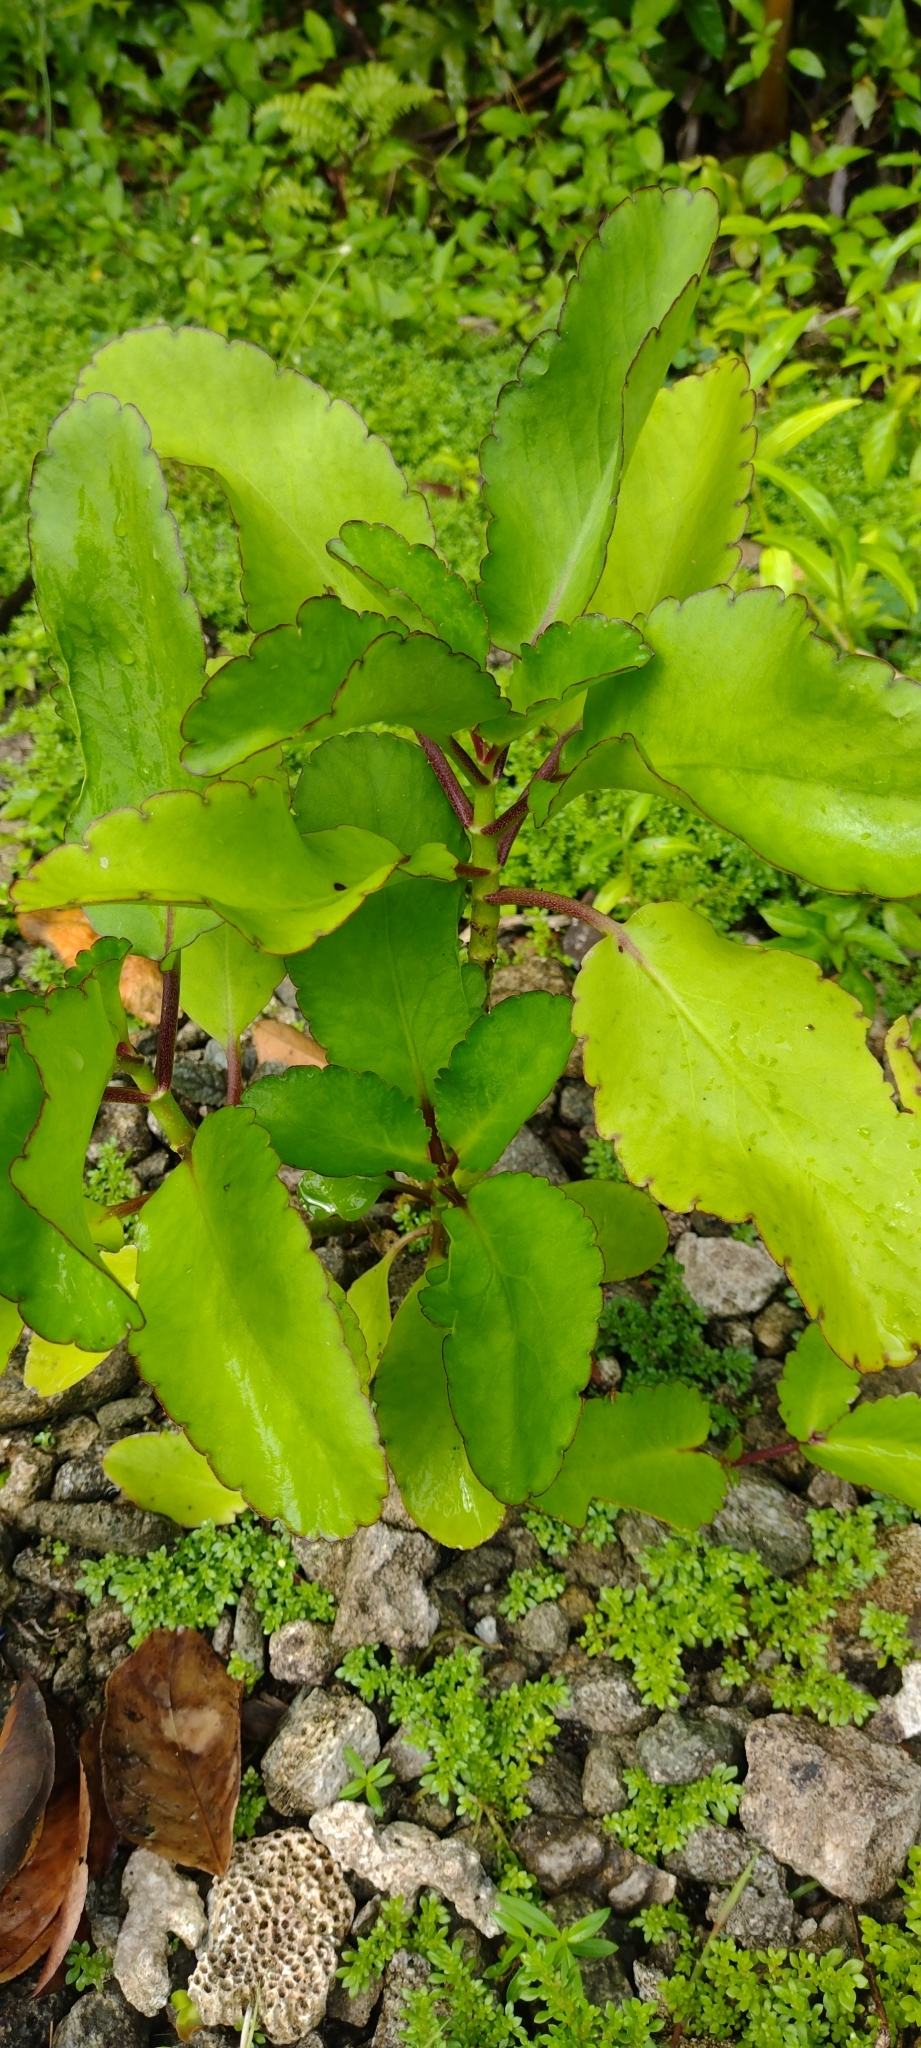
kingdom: Plantae
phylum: Tracheophyta
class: Magnoliopsida
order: Saxifragales
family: Crassulaceae
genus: Kalanchoe
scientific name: Kalanchoe pinnata
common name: Cathedral bells
